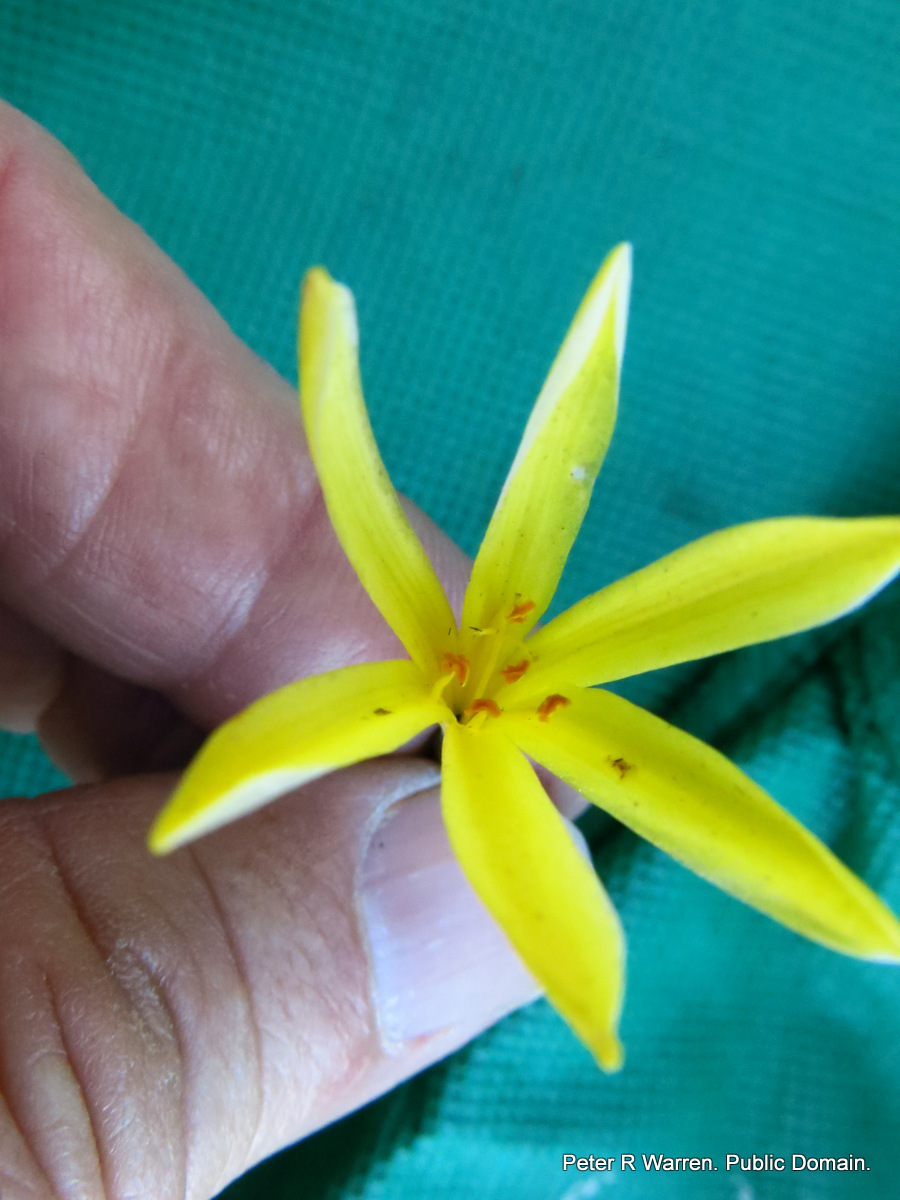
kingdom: Plantae
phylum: Tracheophyta
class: Liliopsida
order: Asparagales
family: Amaryllidaceae
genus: Cyrtanthus
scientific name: Cyrtanthus breviflorus
